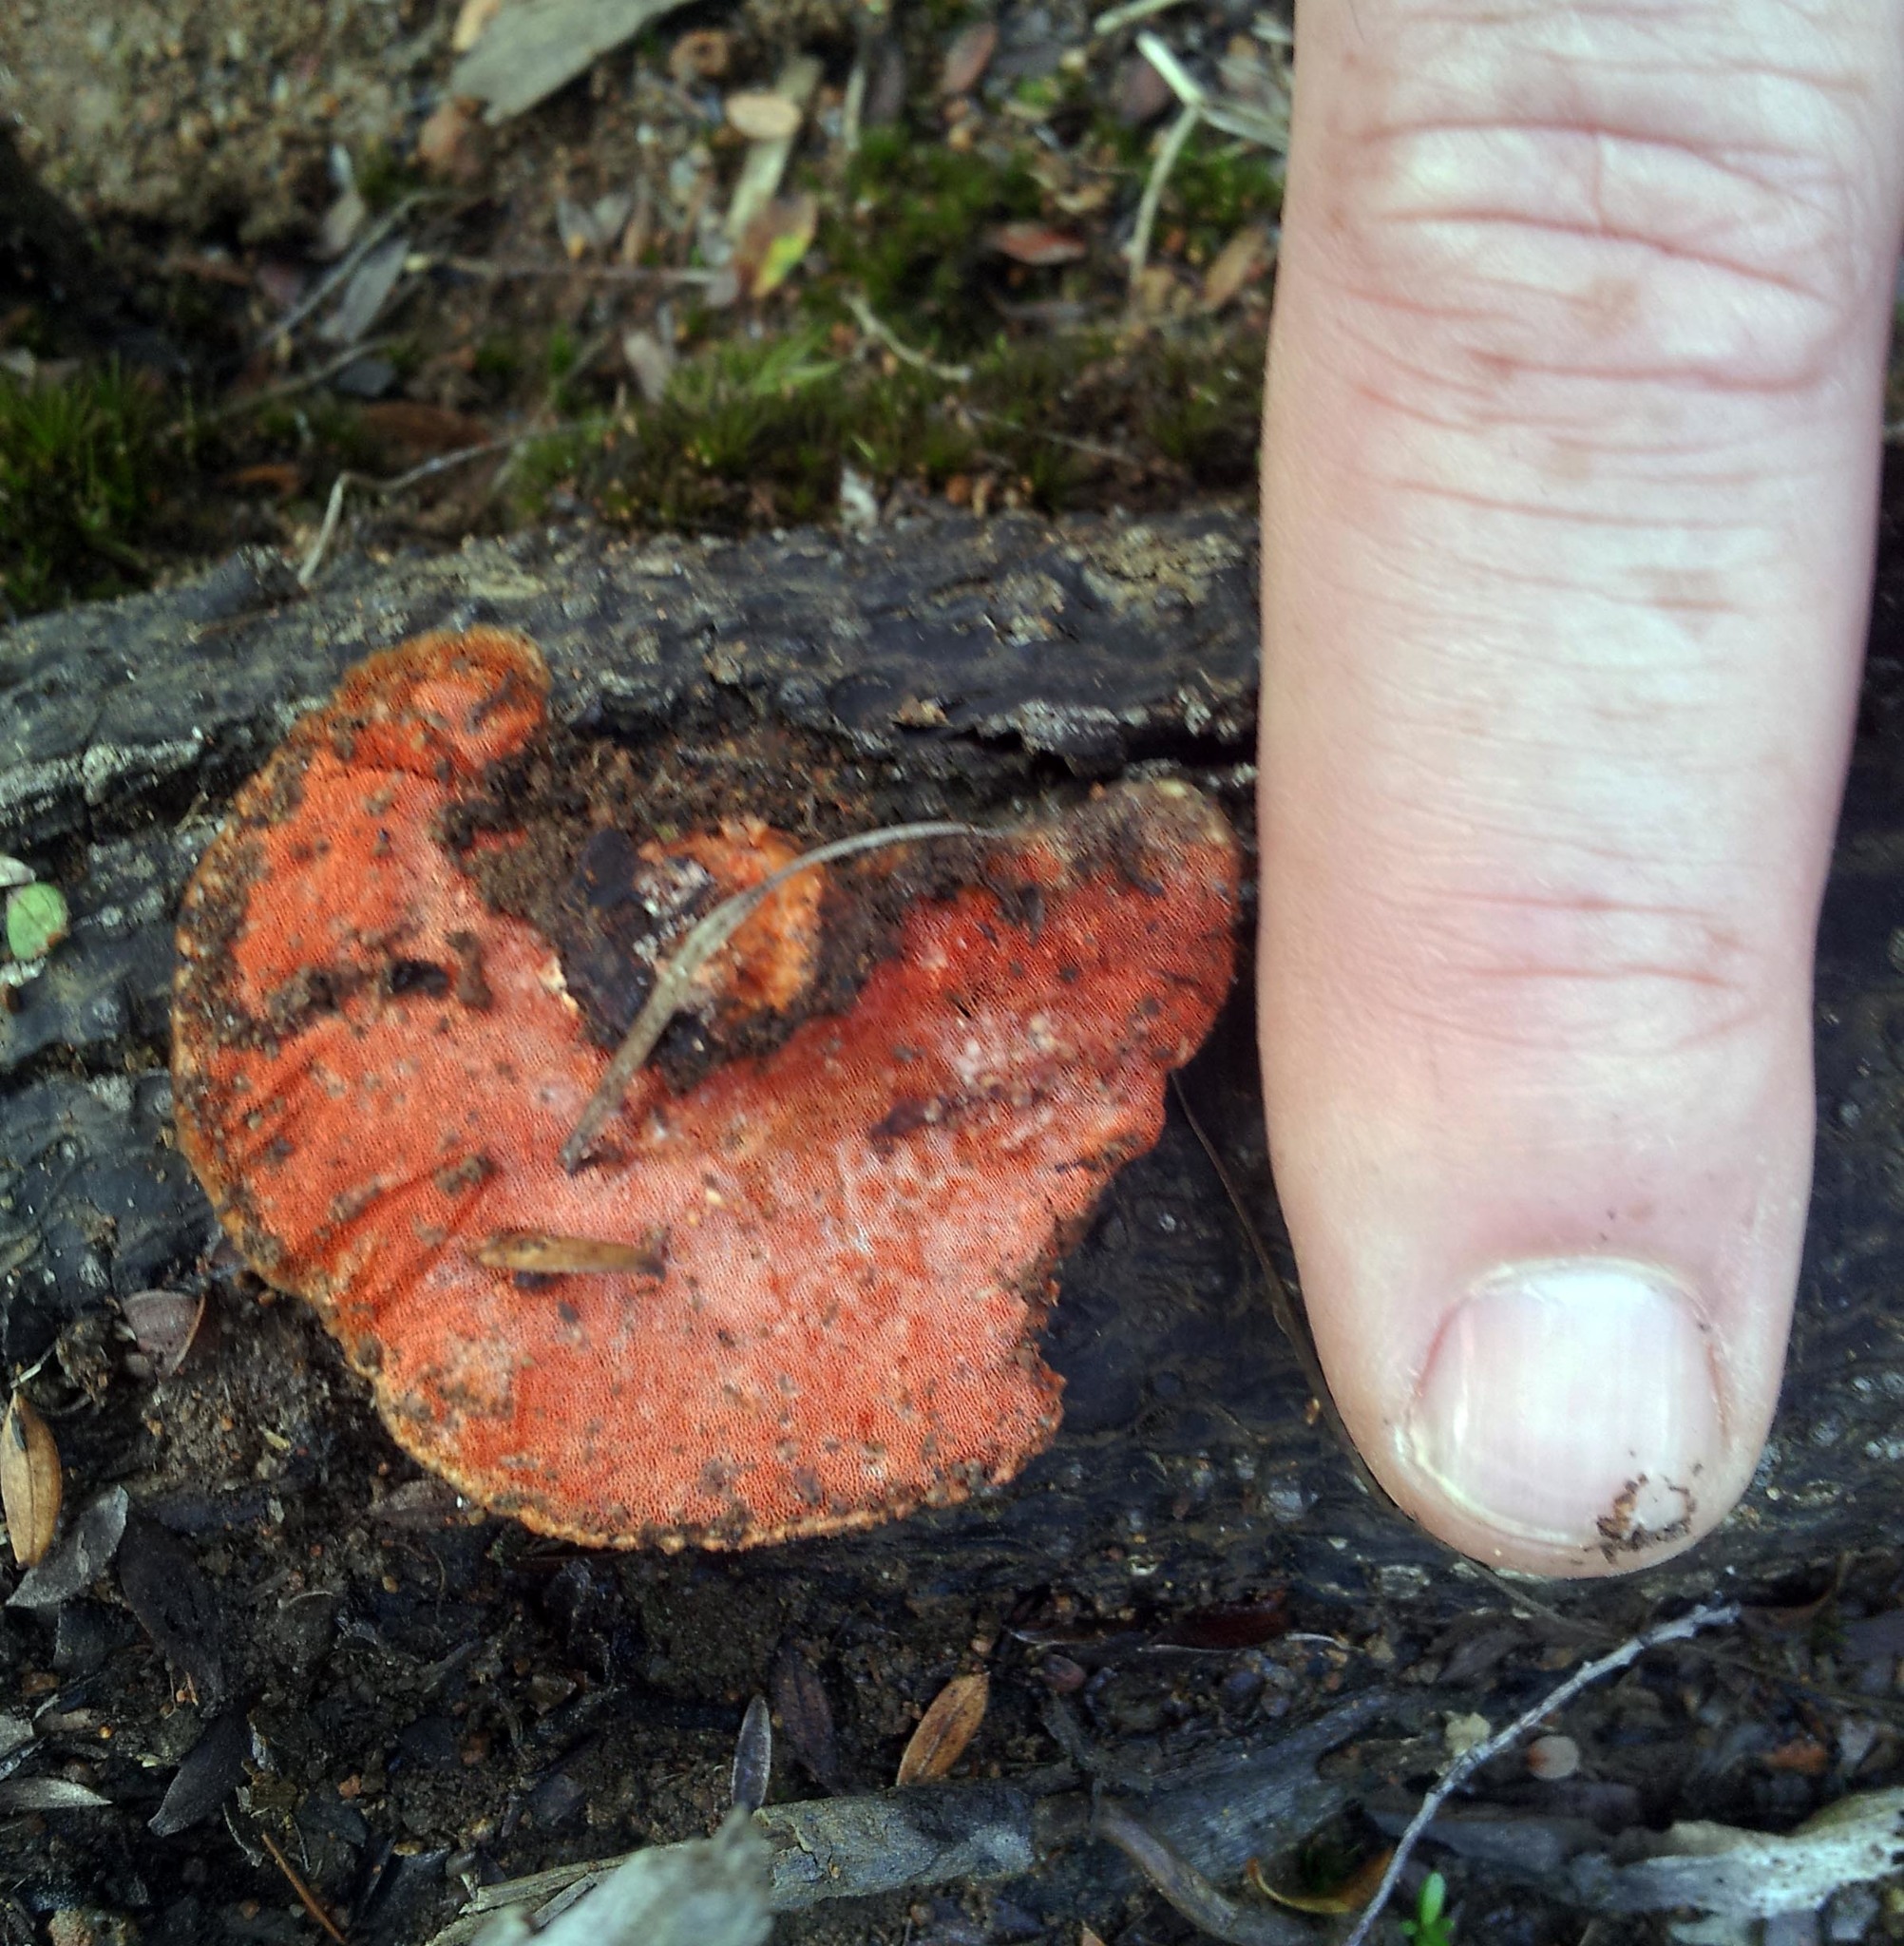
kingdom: Fungi
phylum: Basidiomycota
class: Agaricomycetes
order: Polyporales
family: Polyporaceae
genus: Trametes
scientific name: Trametes coccinea
